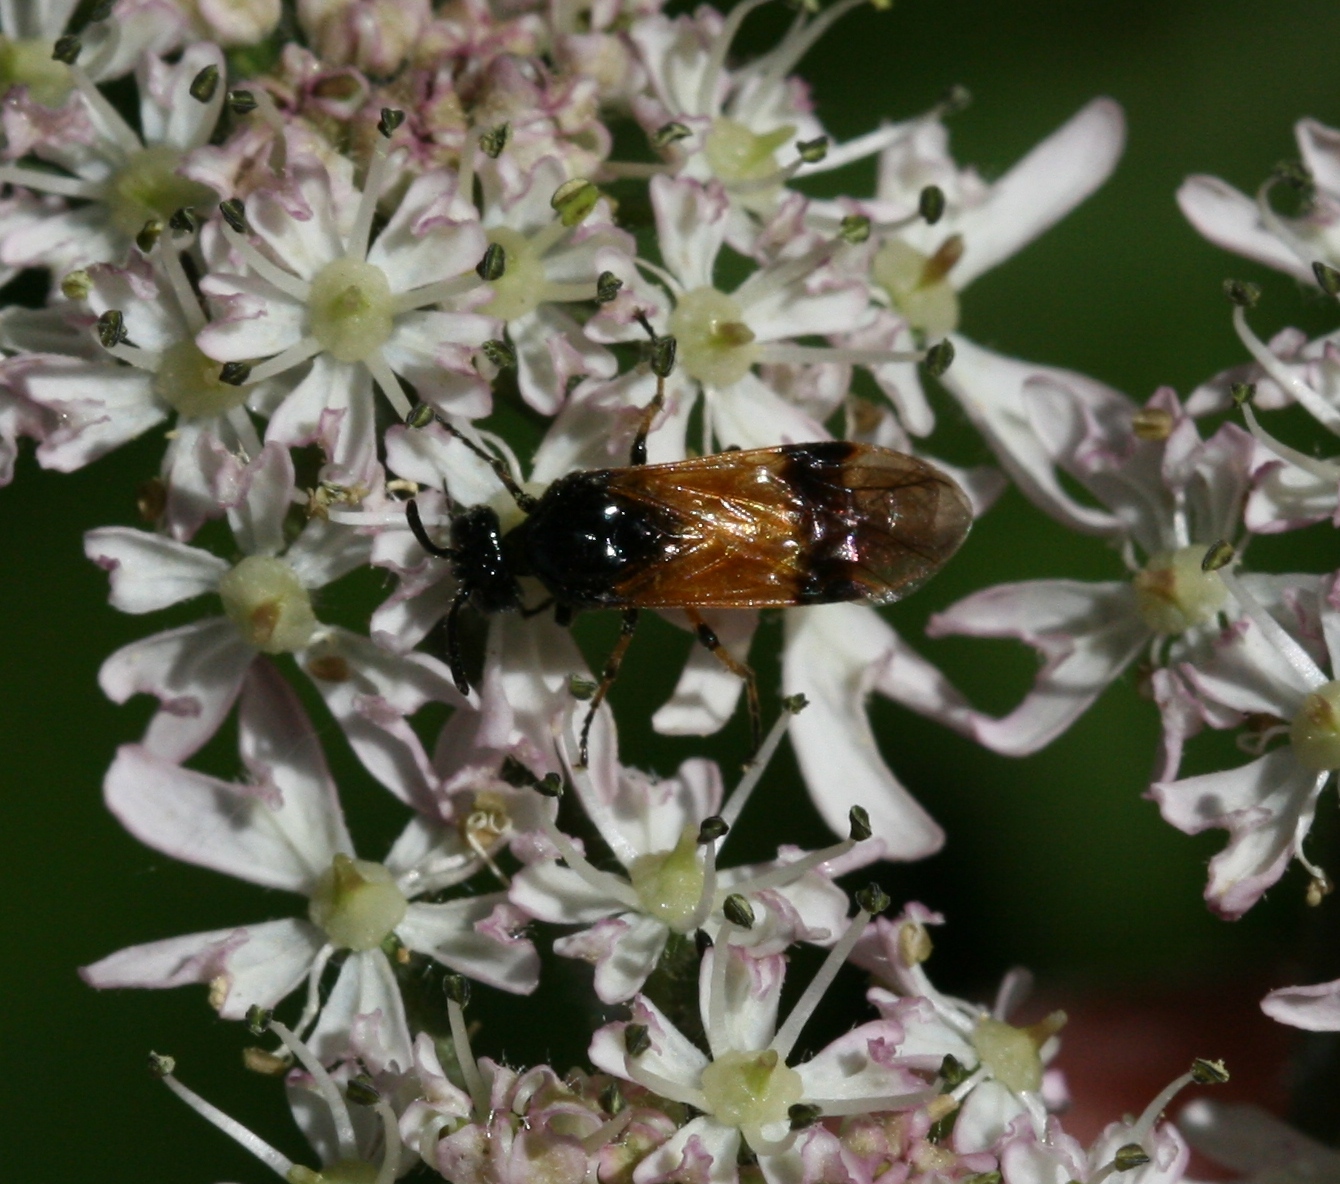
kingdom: Animalia
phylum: Arthropoda
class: Insecta
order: Hymenoptera
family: Argidae
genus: Arge
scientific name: Arge cyanocrocea
